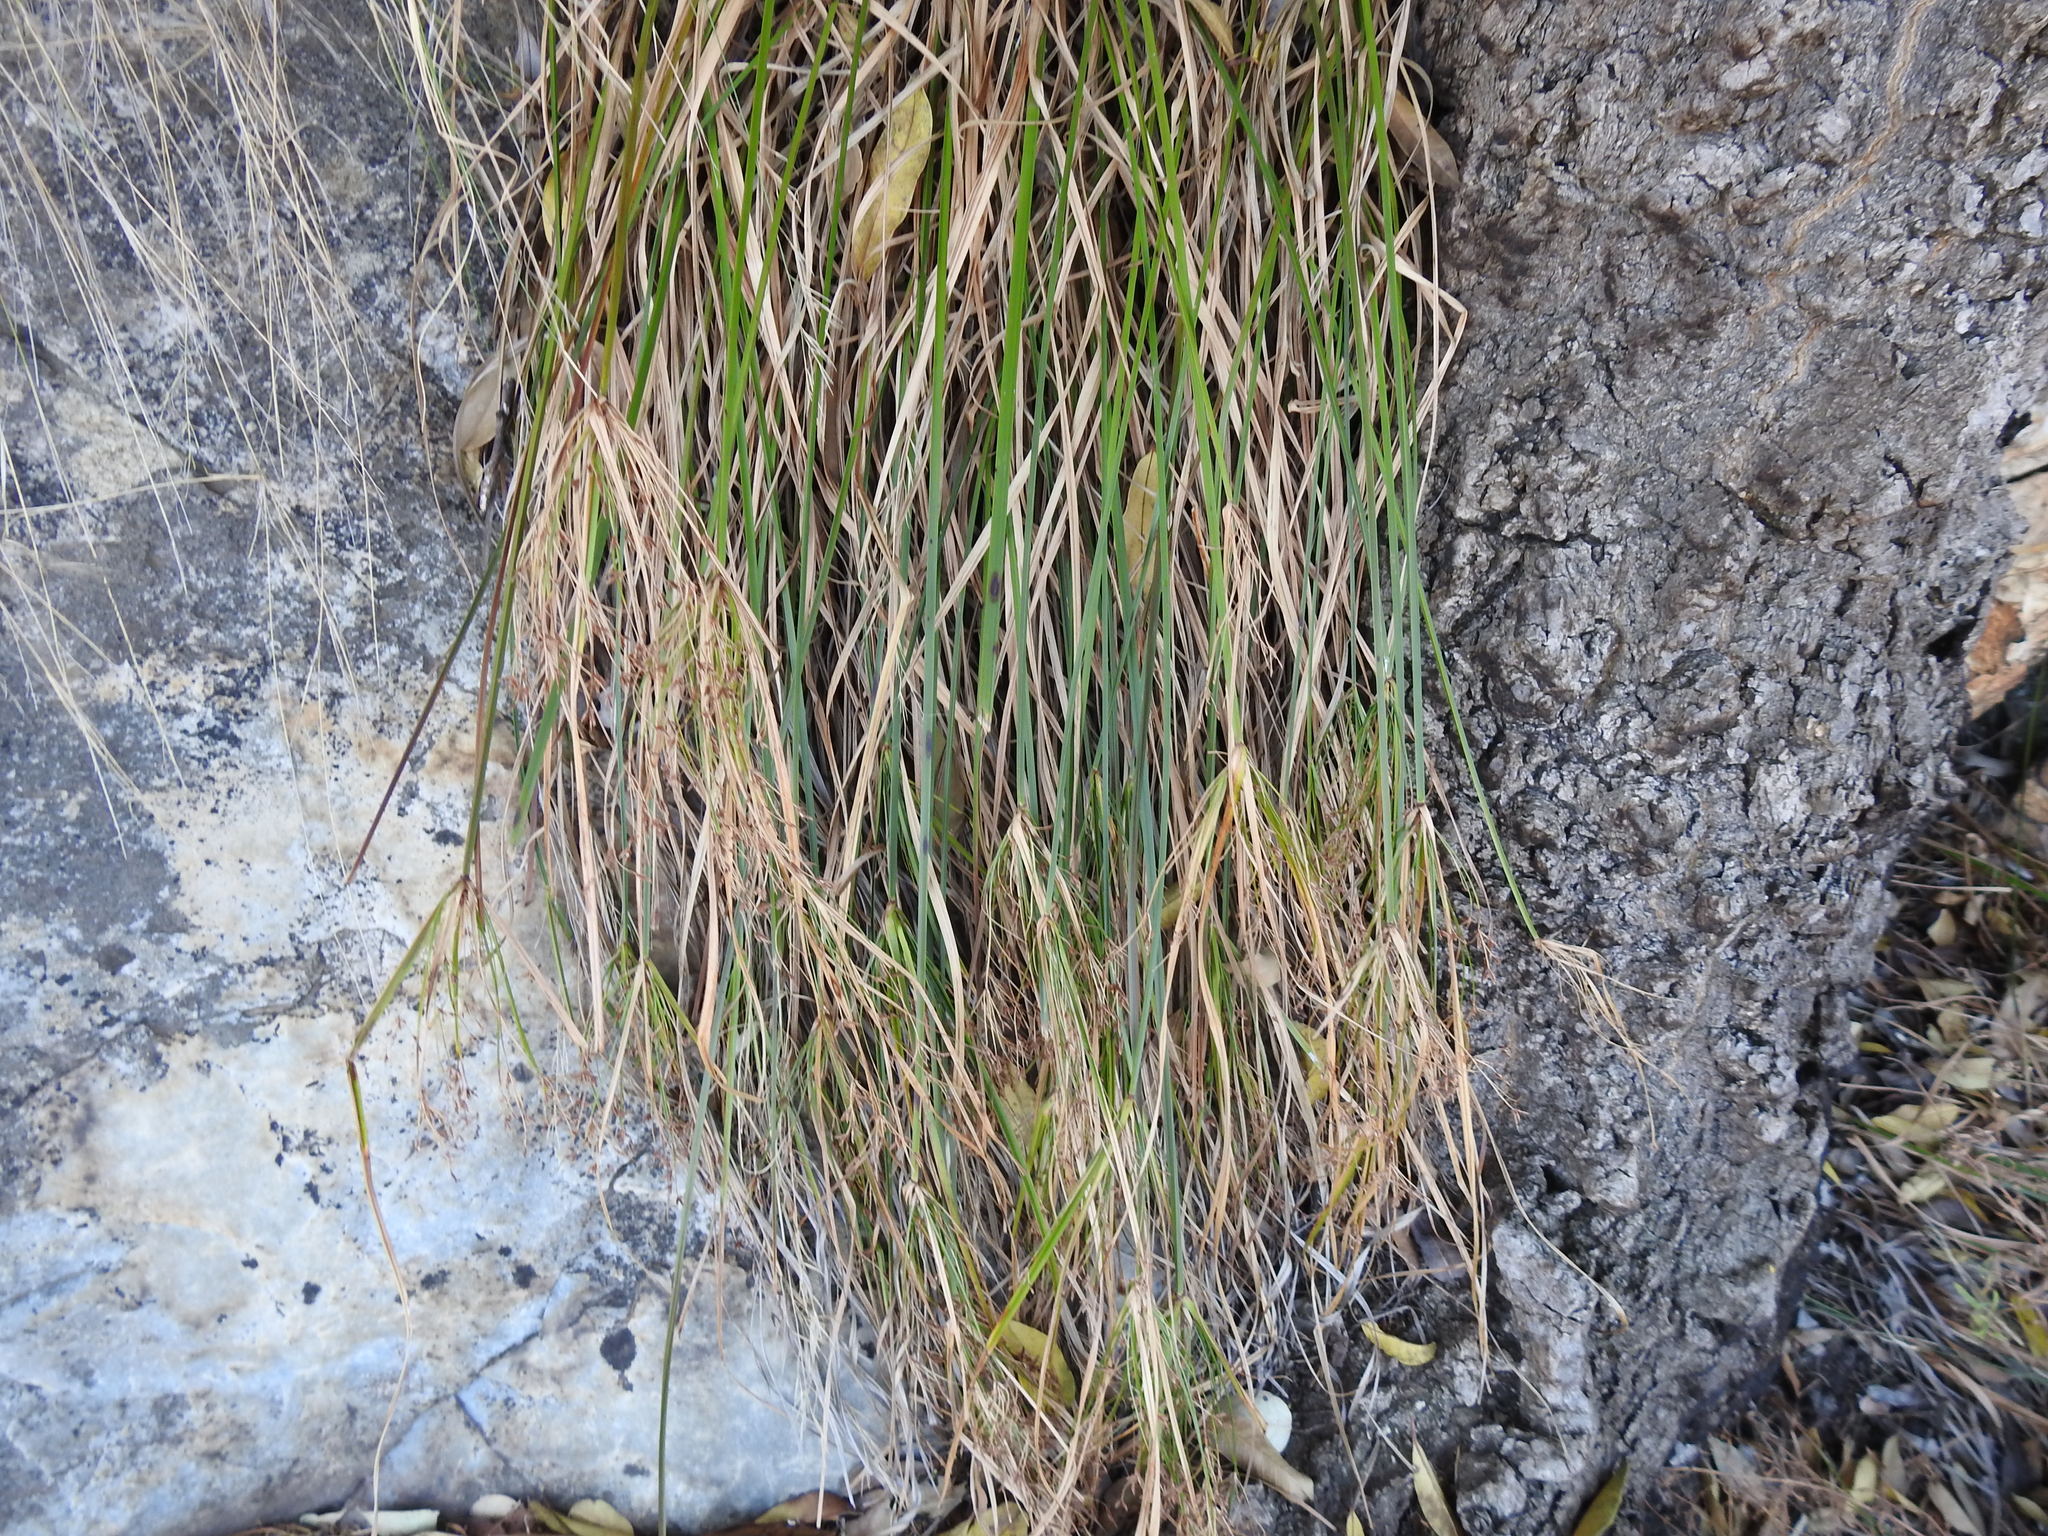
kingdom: Plantae
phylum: Tracheophyta
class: Liliopsida
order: Poales
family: Cyperaceae
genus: Cyperus
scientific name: Cyperus leptocladus
